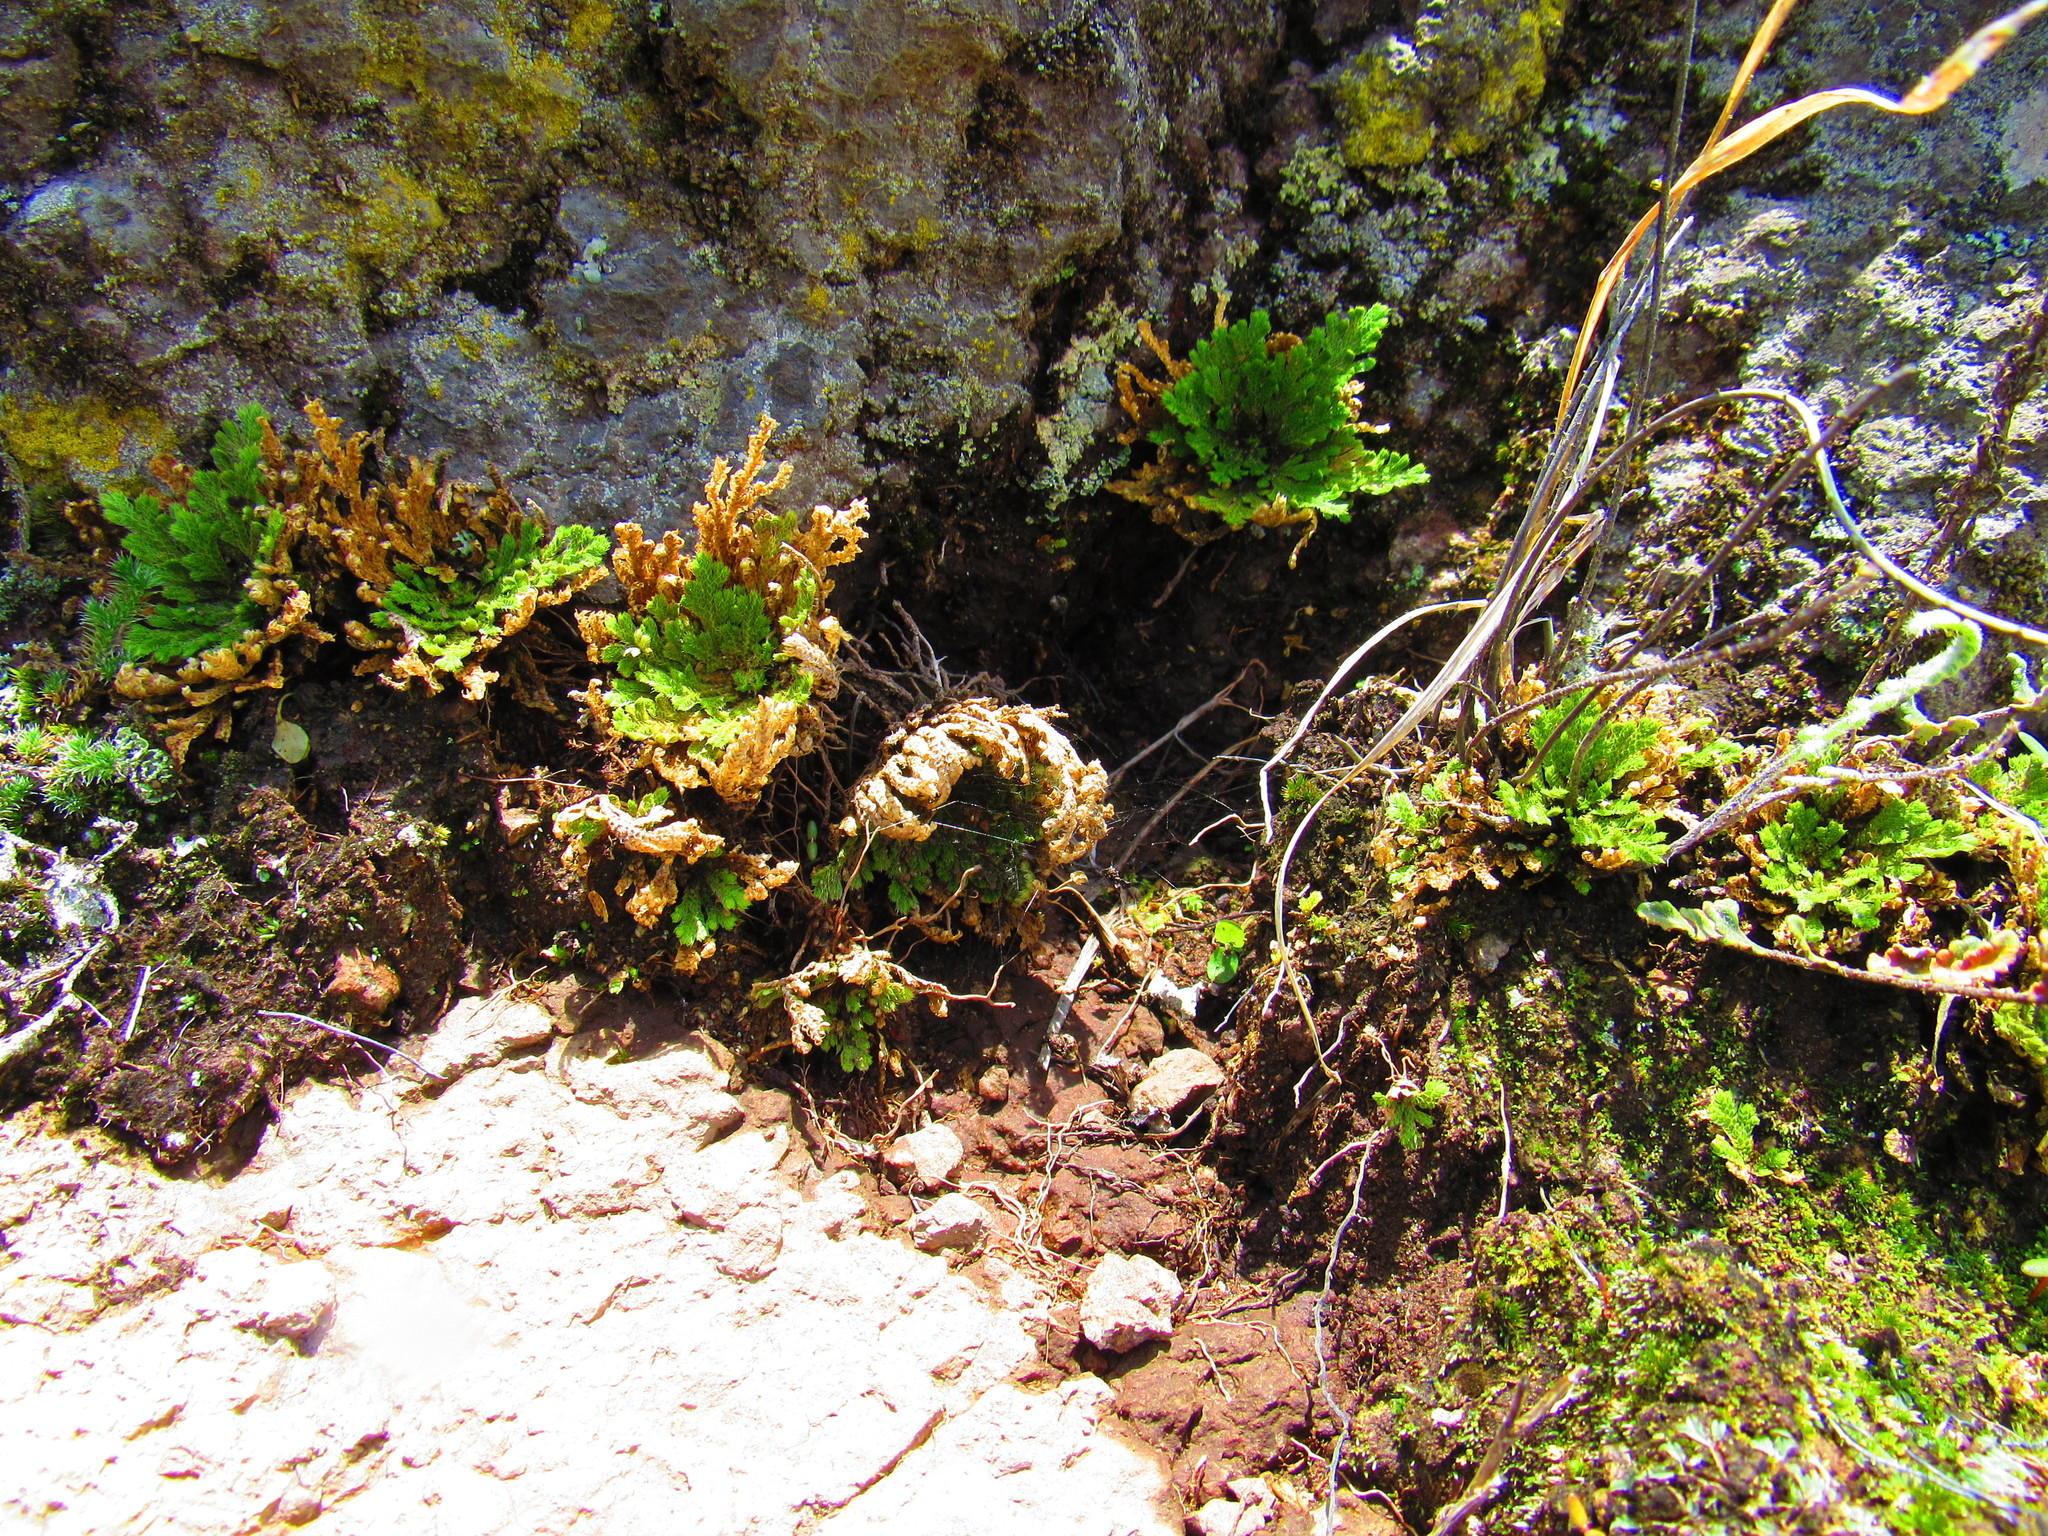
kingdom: Plantae
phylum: Tracheophyta
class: Lycopodiopsida
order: Selaginellales
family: Selaginellaceae
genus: Selaginella
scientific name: Selaginella lepidophylla
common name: Rose-of-jericho
